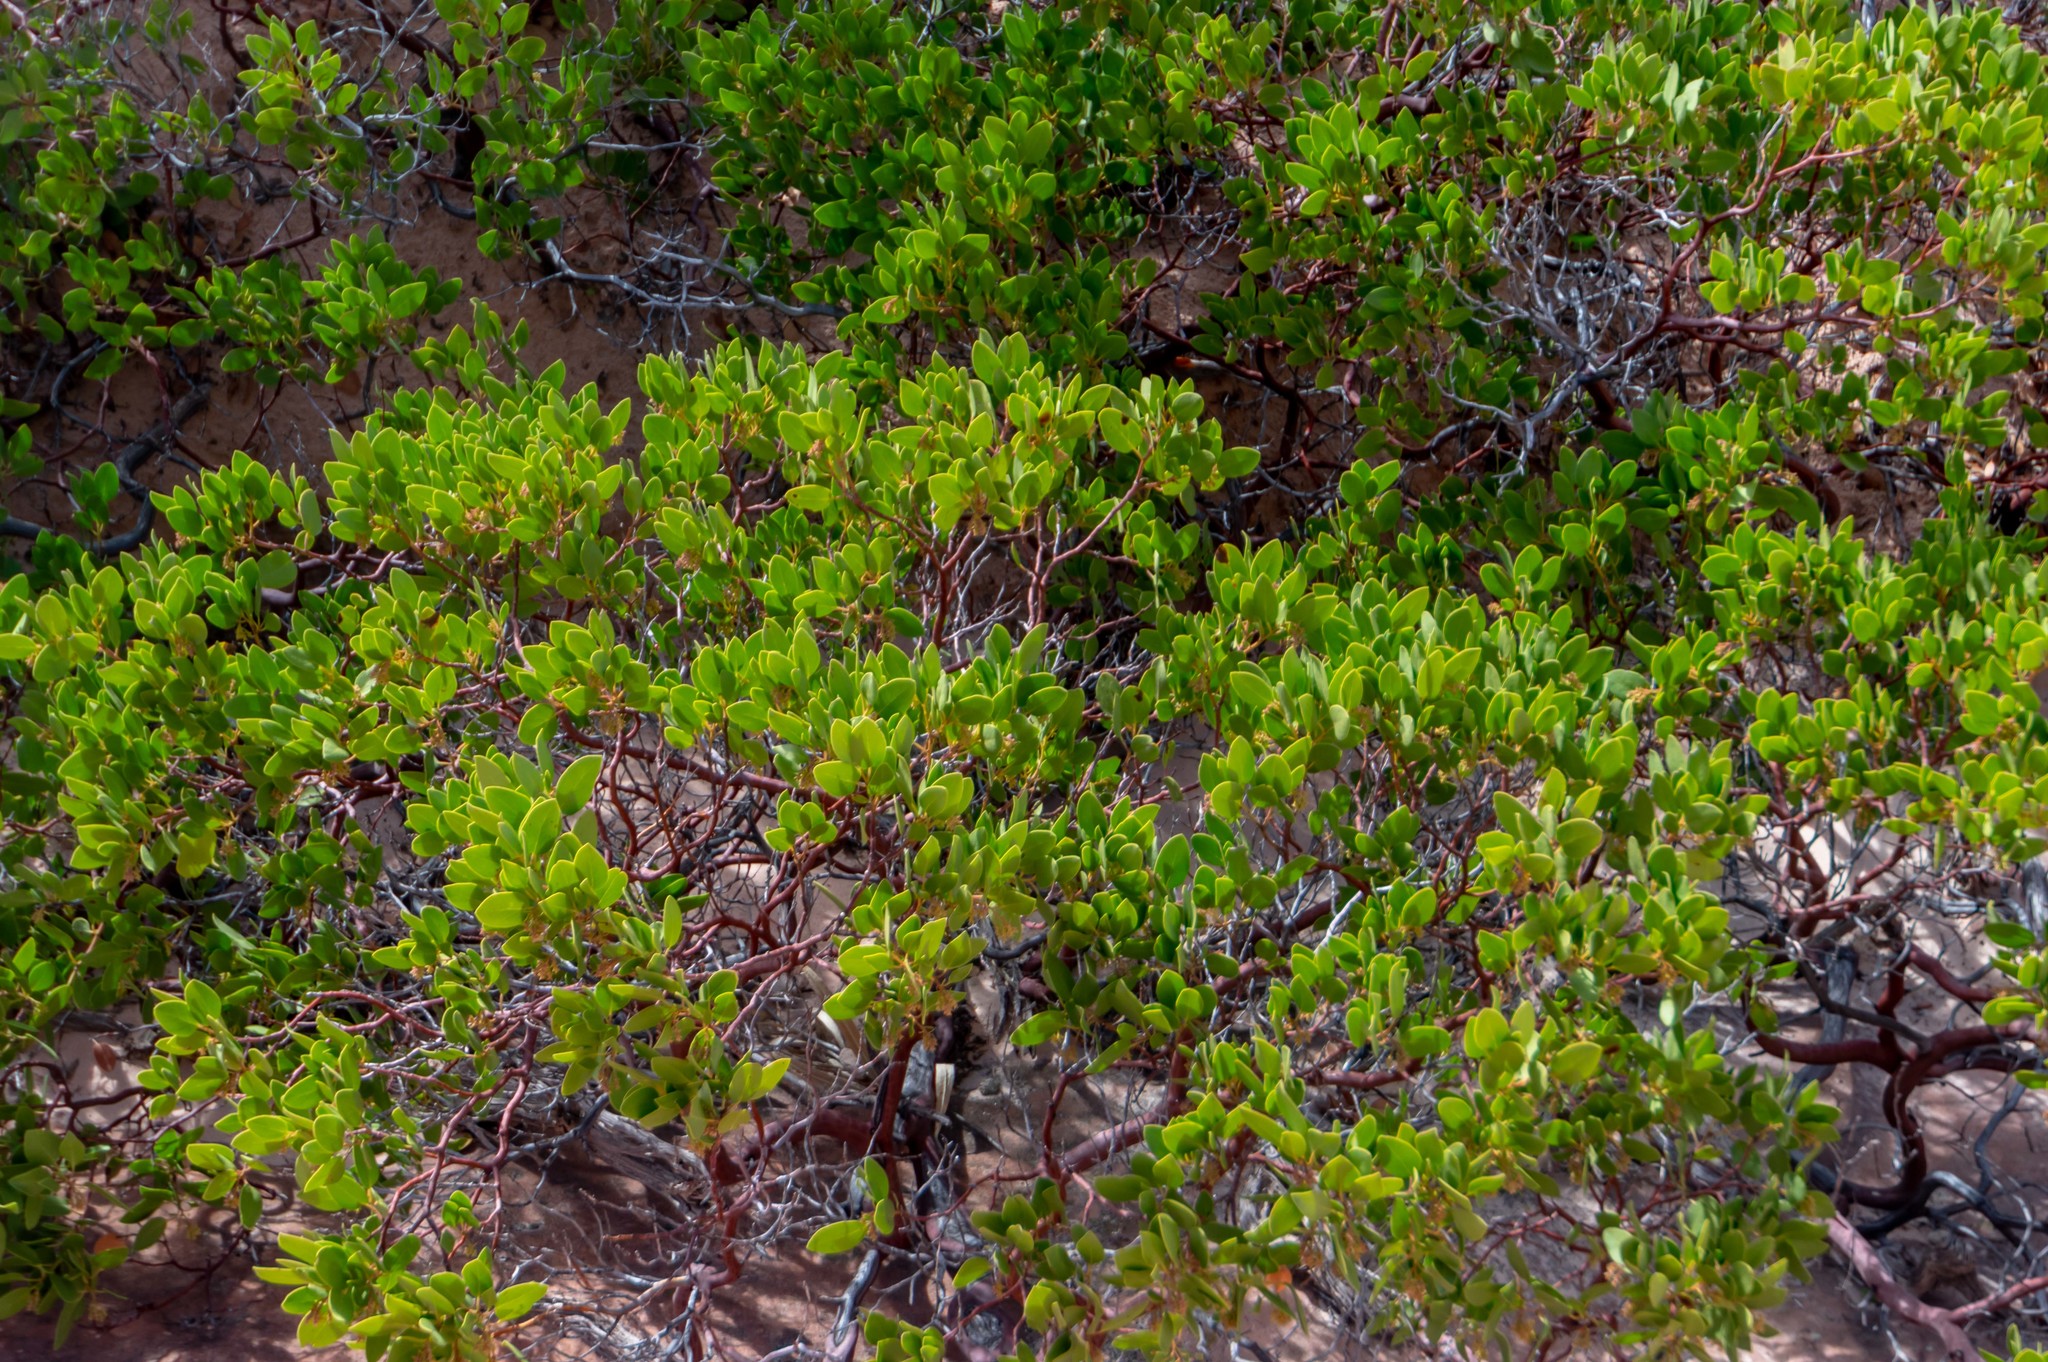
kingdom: Plantae
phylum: Tracheophyta
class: Magnoliopsida
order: Ericales
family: Ericaceae
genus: Arctostaphylos
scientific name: Arctostaphylos patula
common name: Green-leaf manzanita
